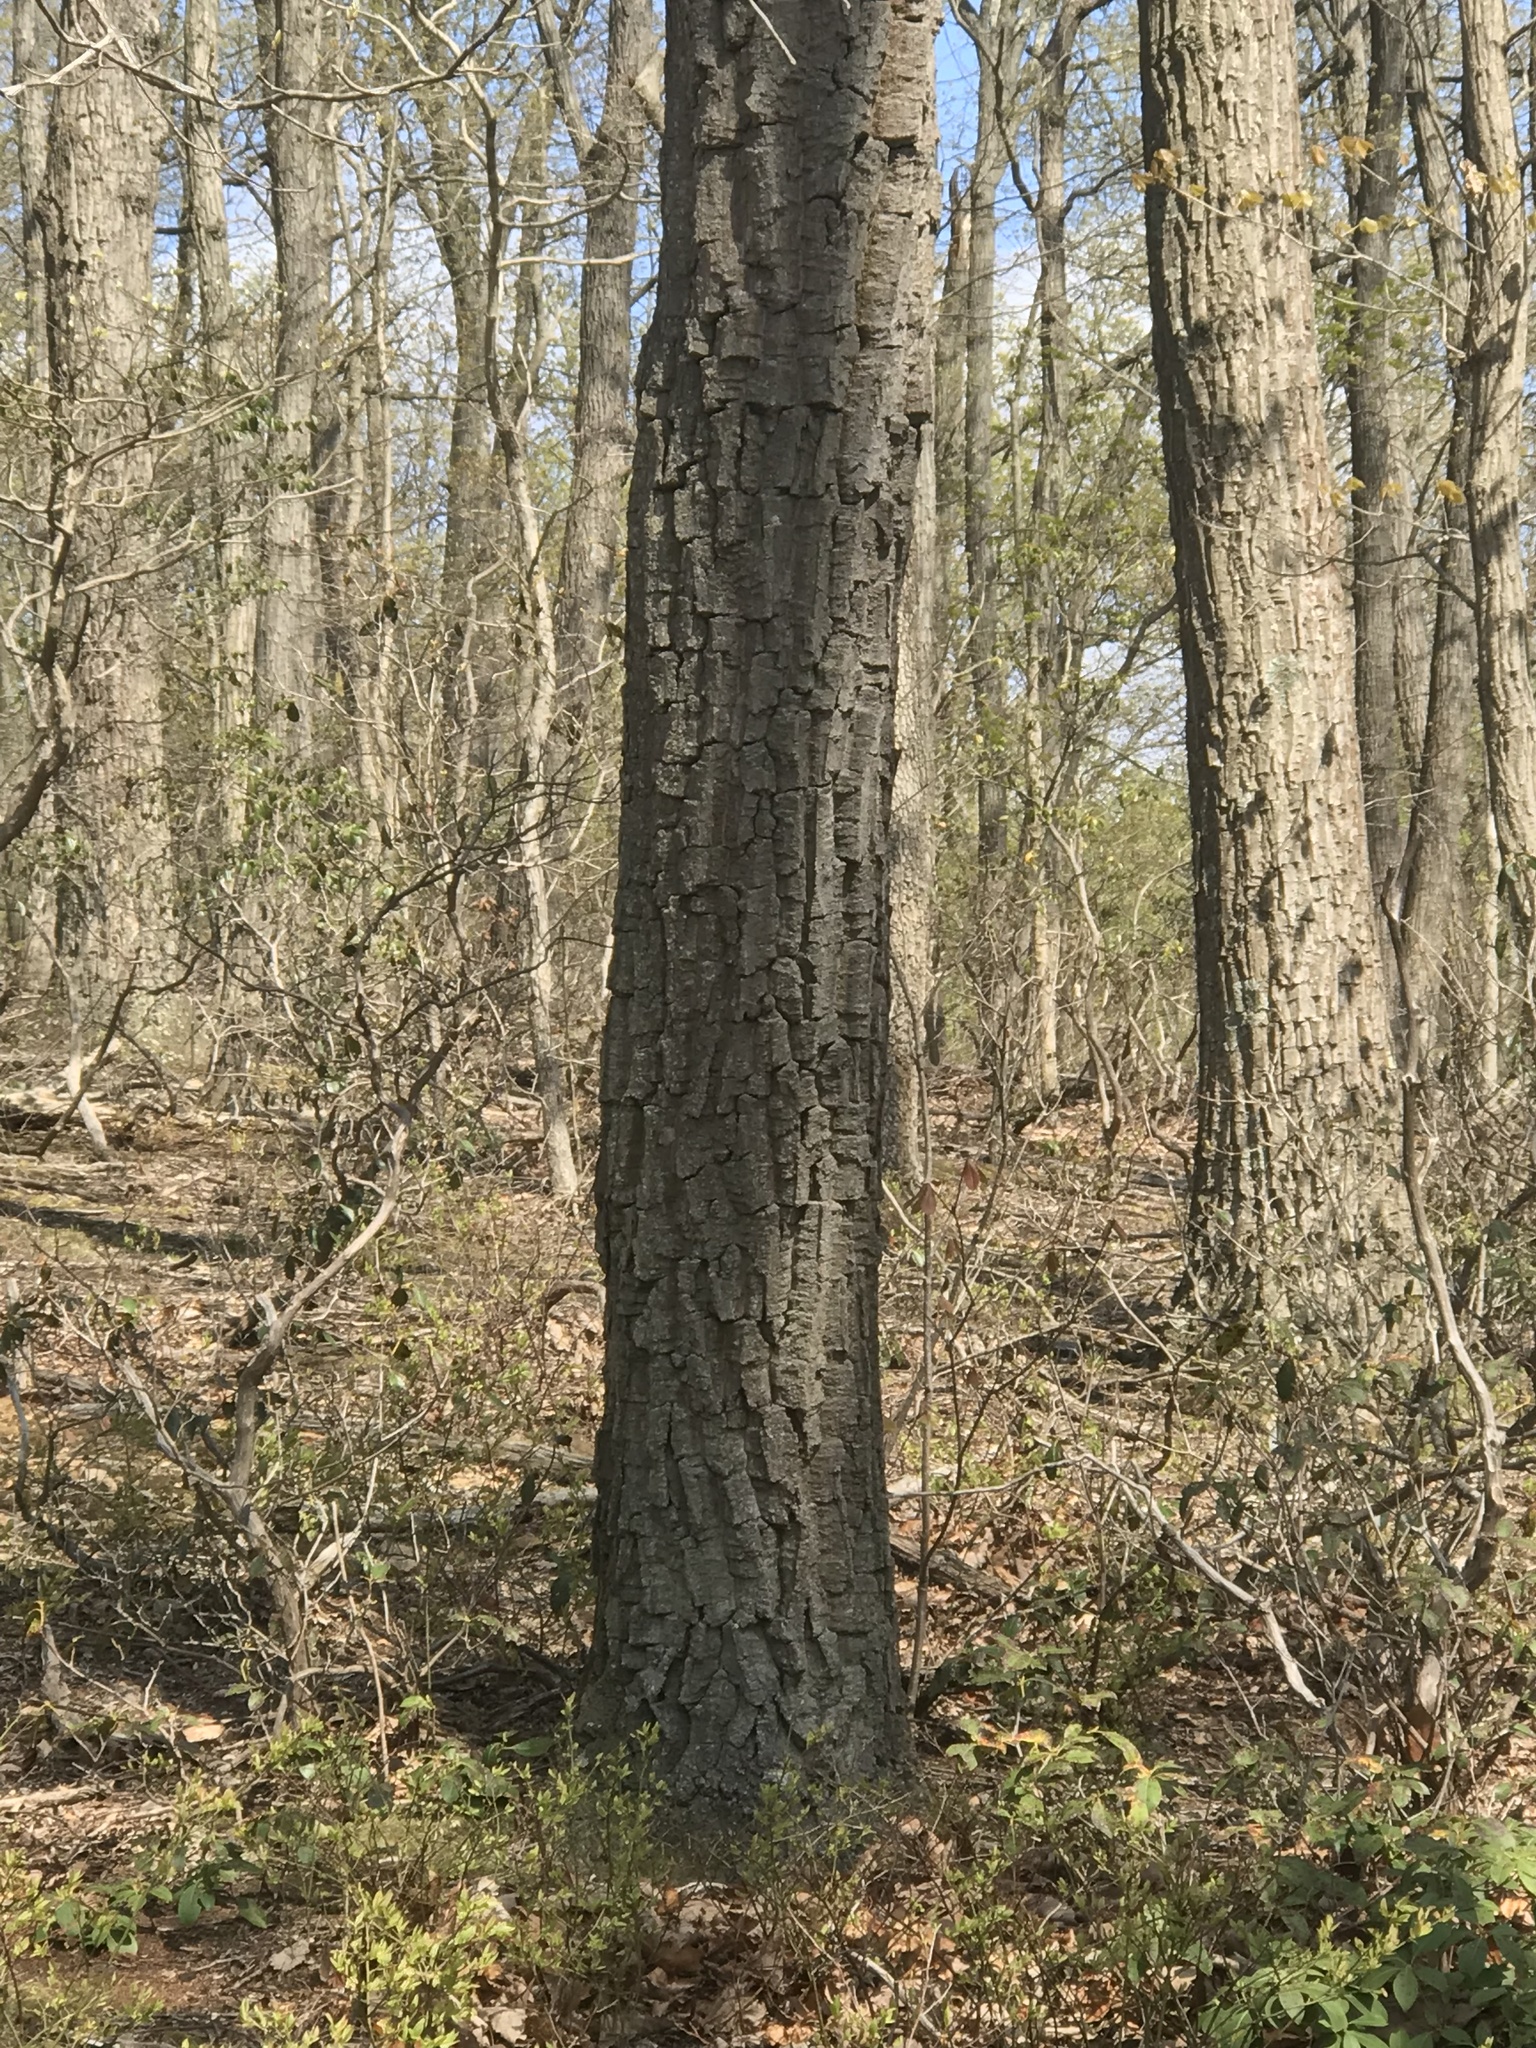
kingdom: Plantae
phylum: Tracheophyta
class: Magnoliopsida
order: Fagales
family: Fagaceae
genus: Quercus
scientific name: Quercus montana
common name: Chestnut oak
